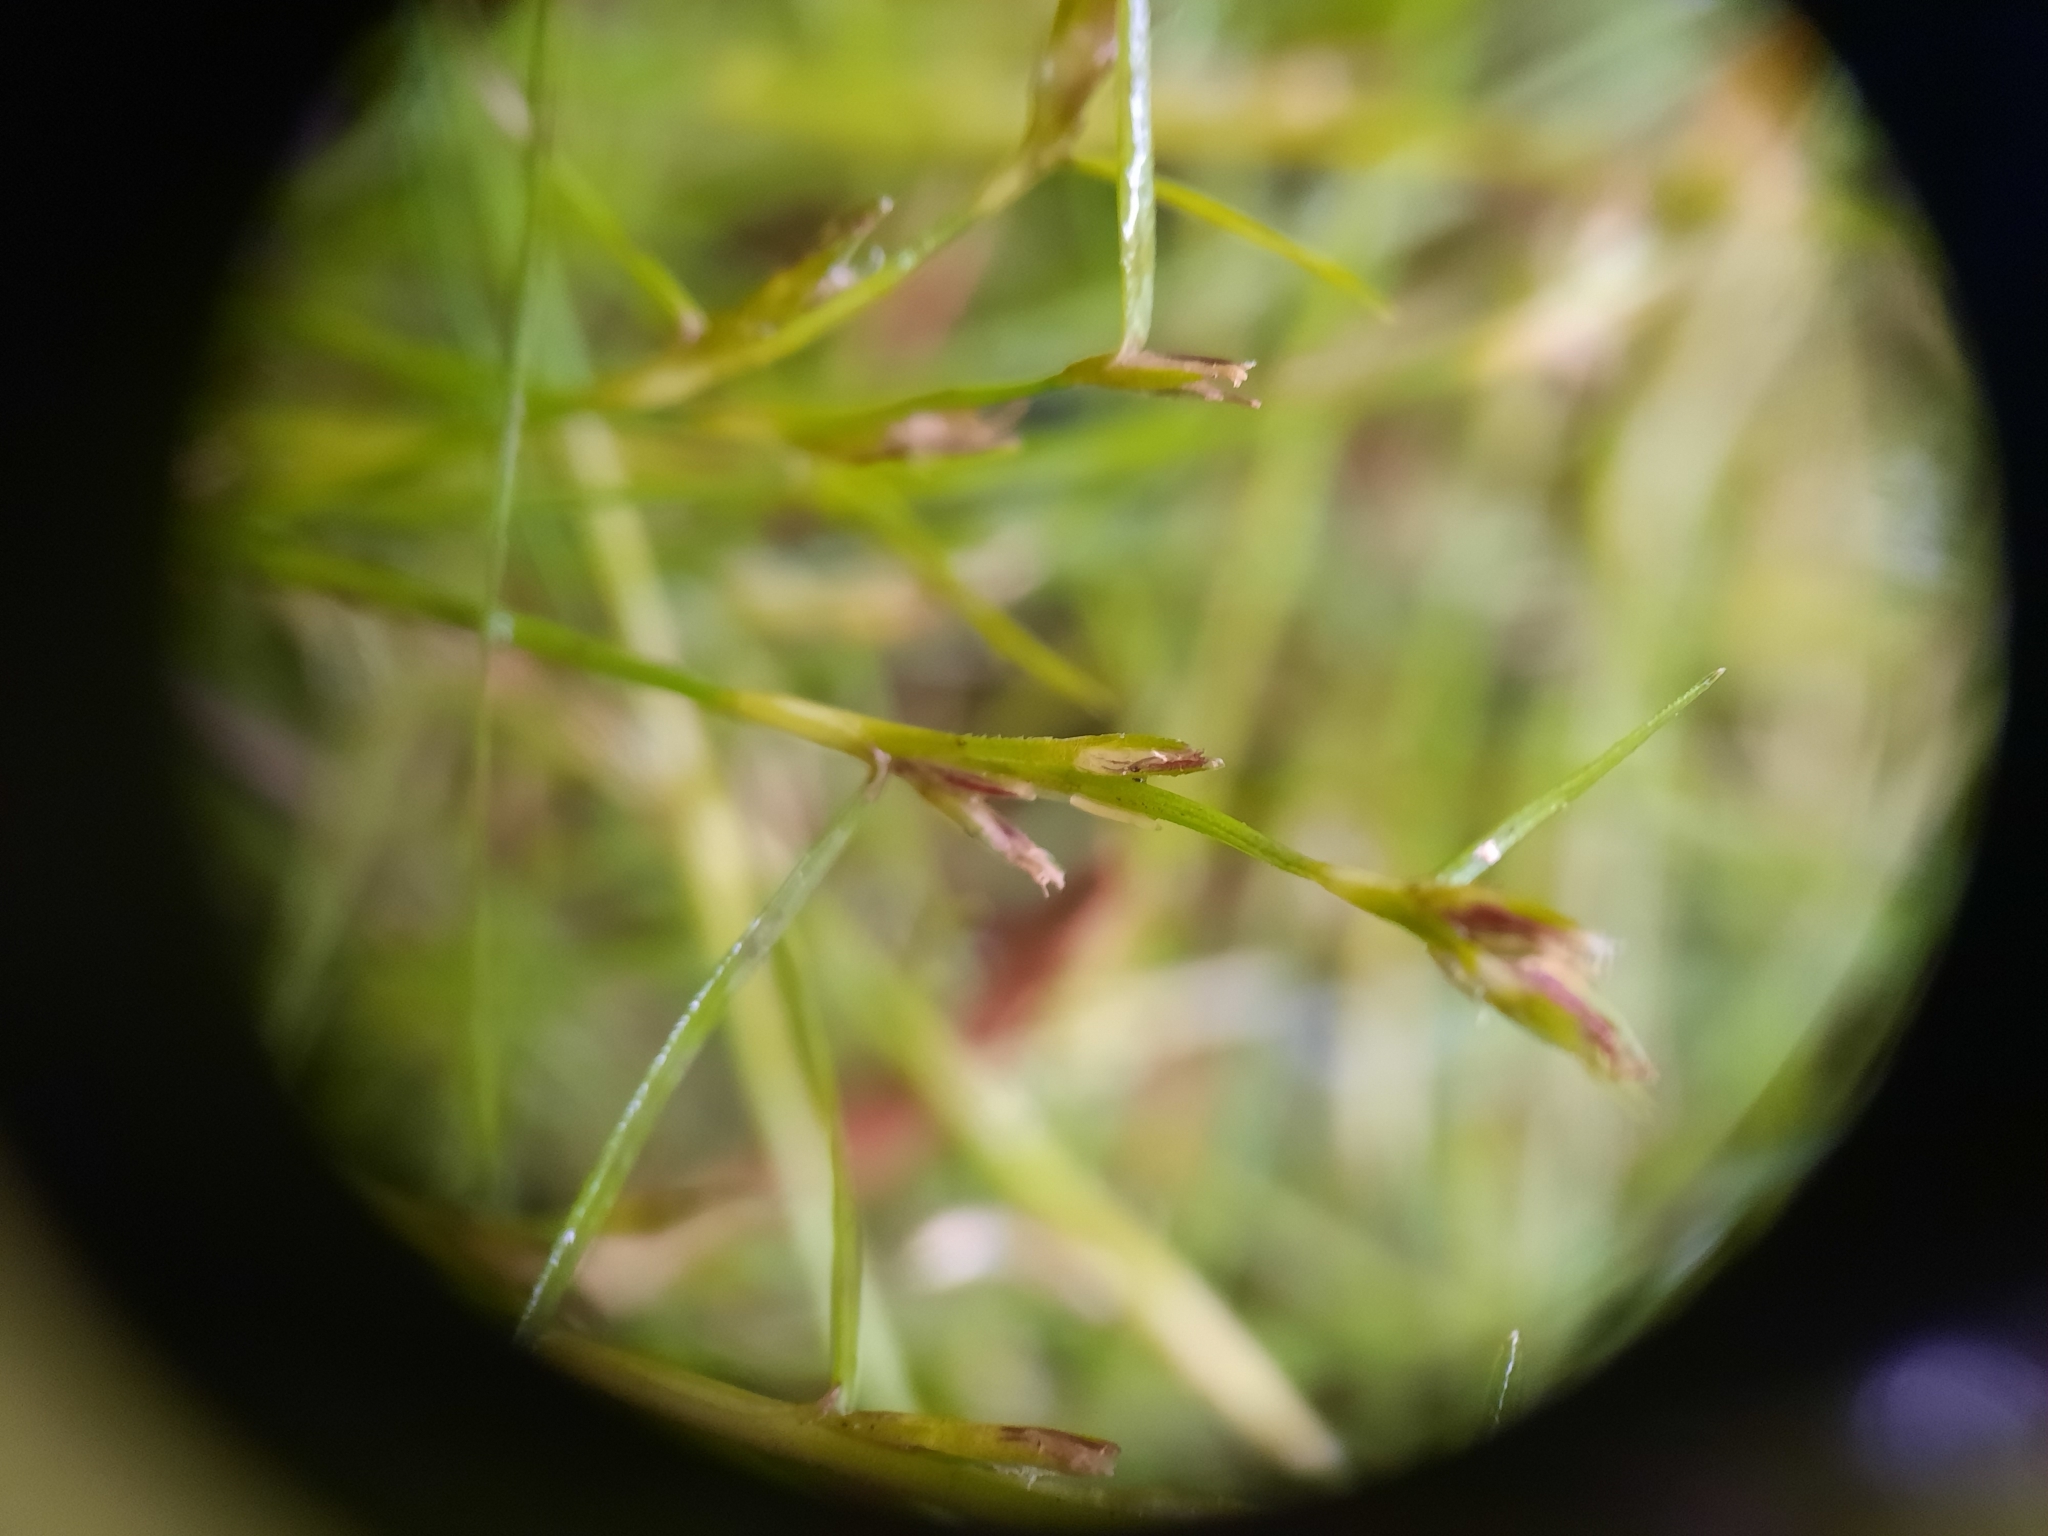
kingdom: Plantae
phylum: Tracheophyta
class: Liliopsida
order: Poales
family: Cyperaceae
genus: Schoenus
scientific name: Schoenus maschalinus
